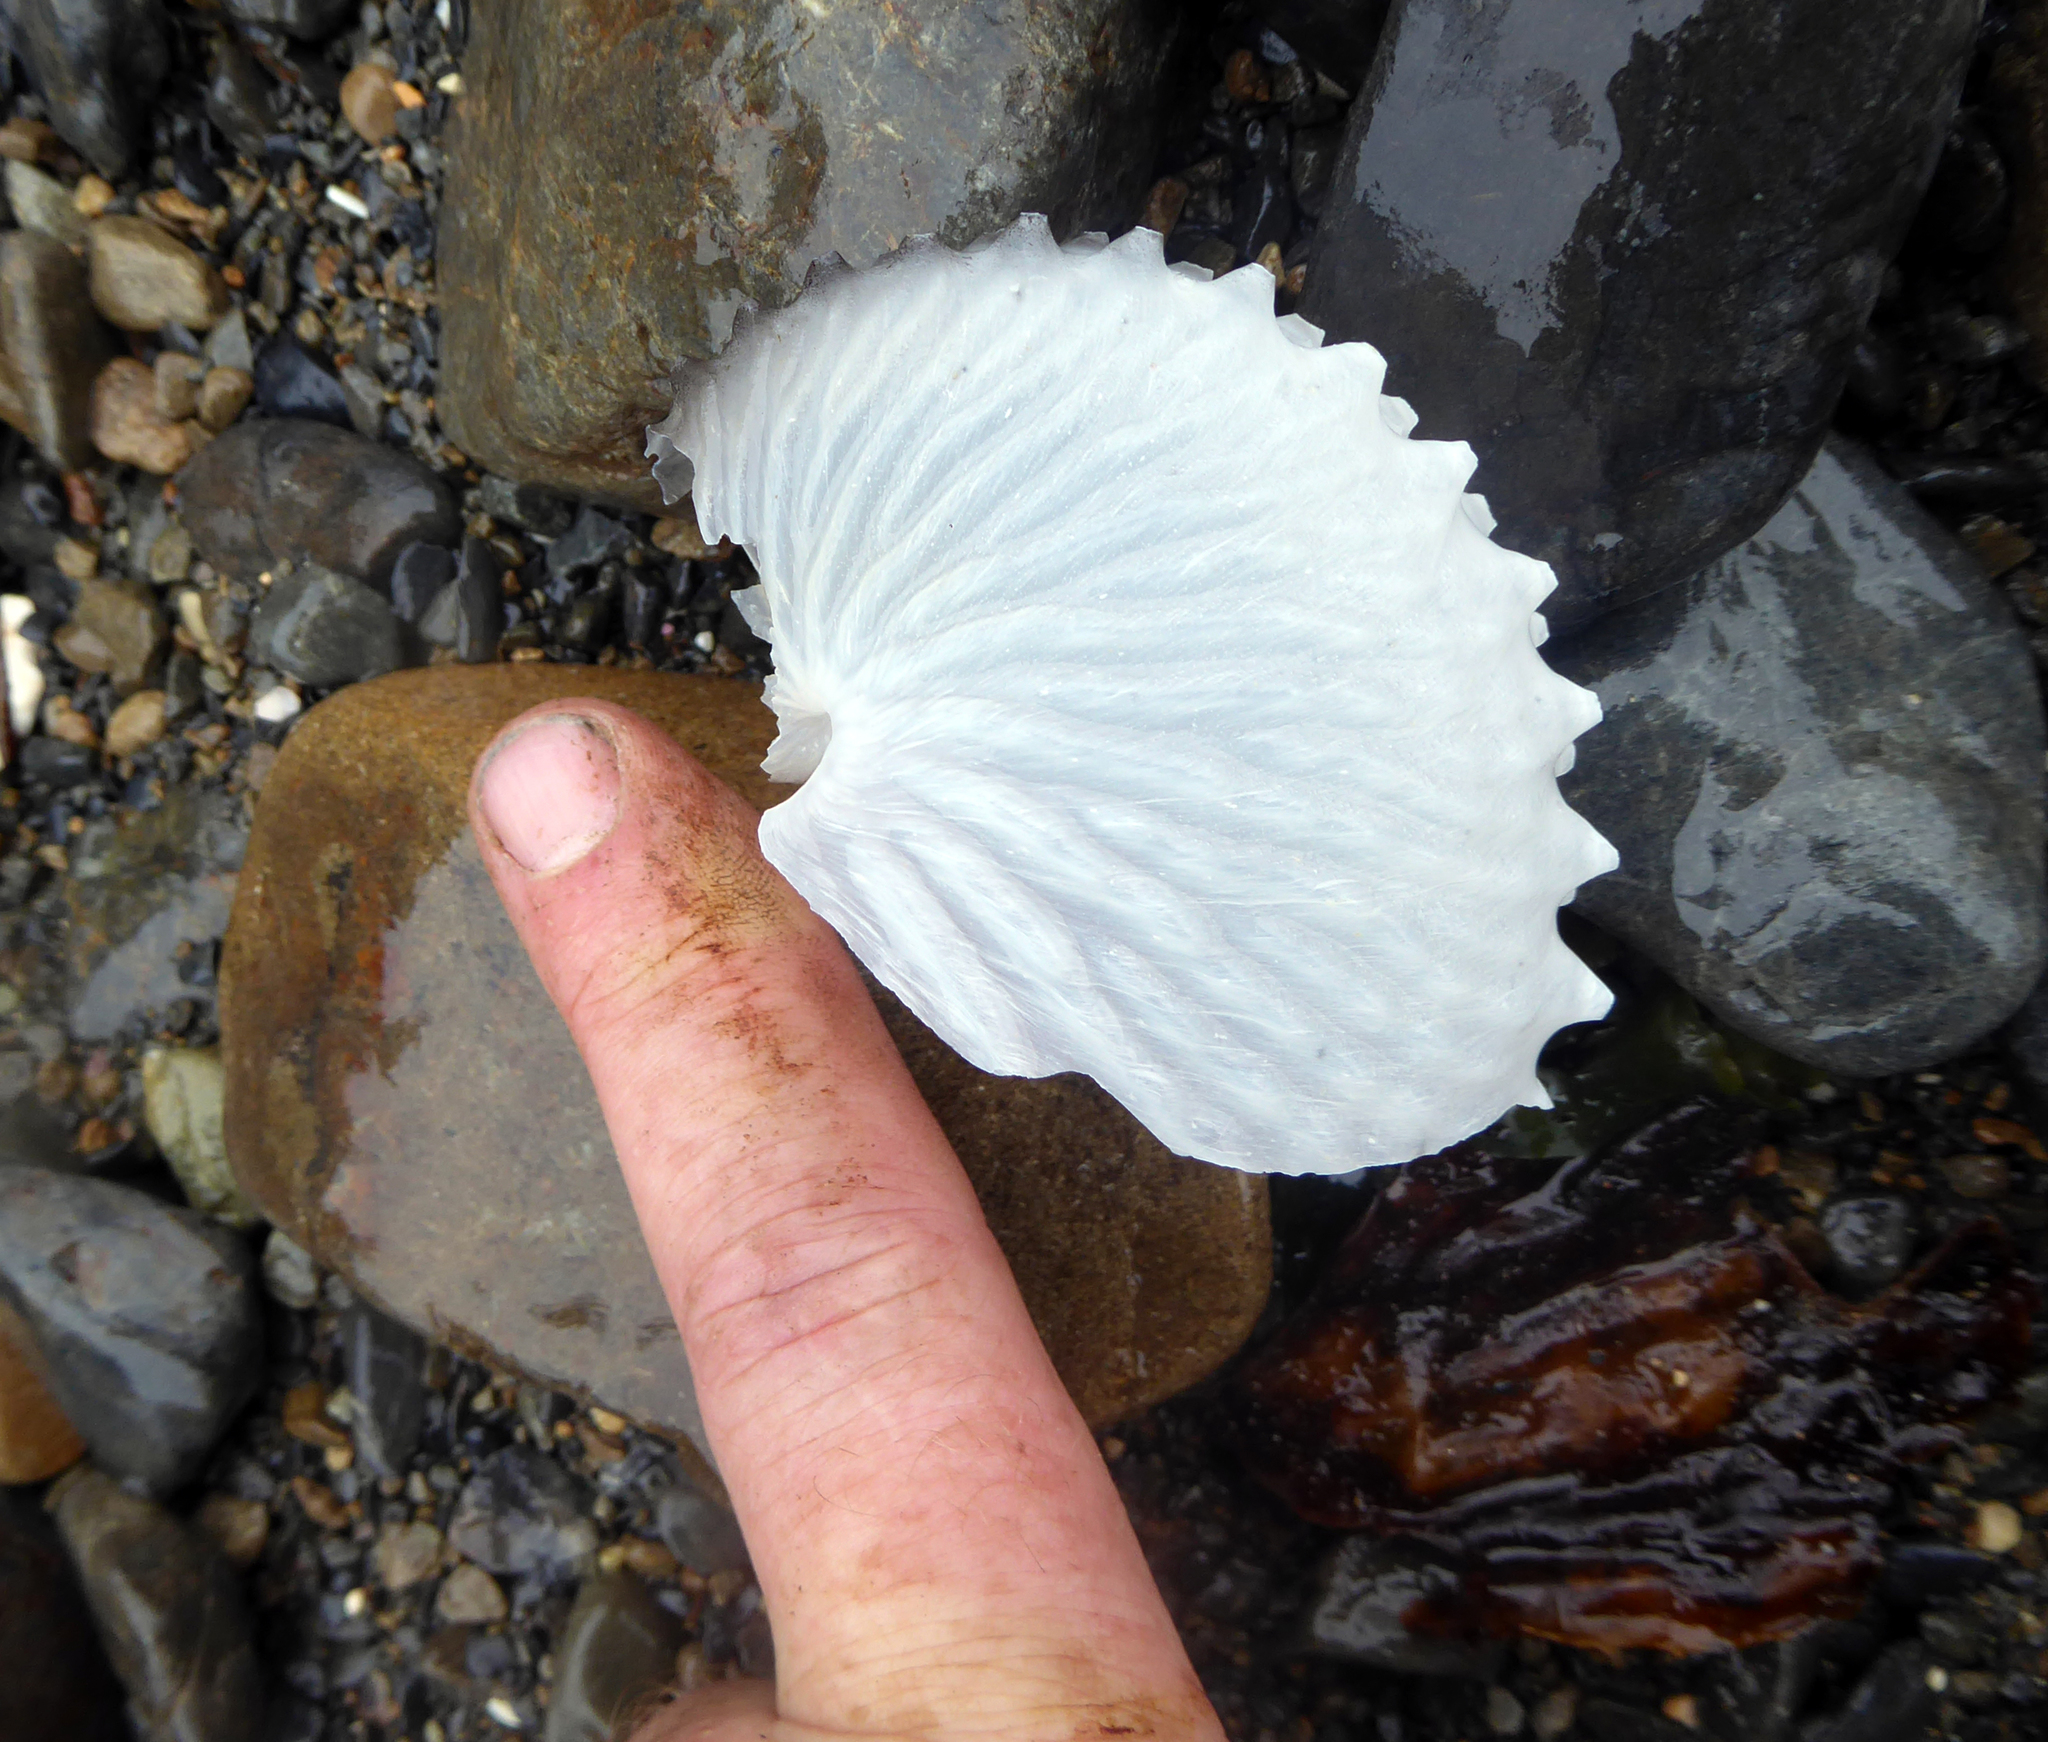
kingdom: Animalia
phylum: Mollusca
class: Cephalopoda
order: Octopoda
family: Argonautidae
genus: Argonauta
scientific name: Argonauta nodosus
